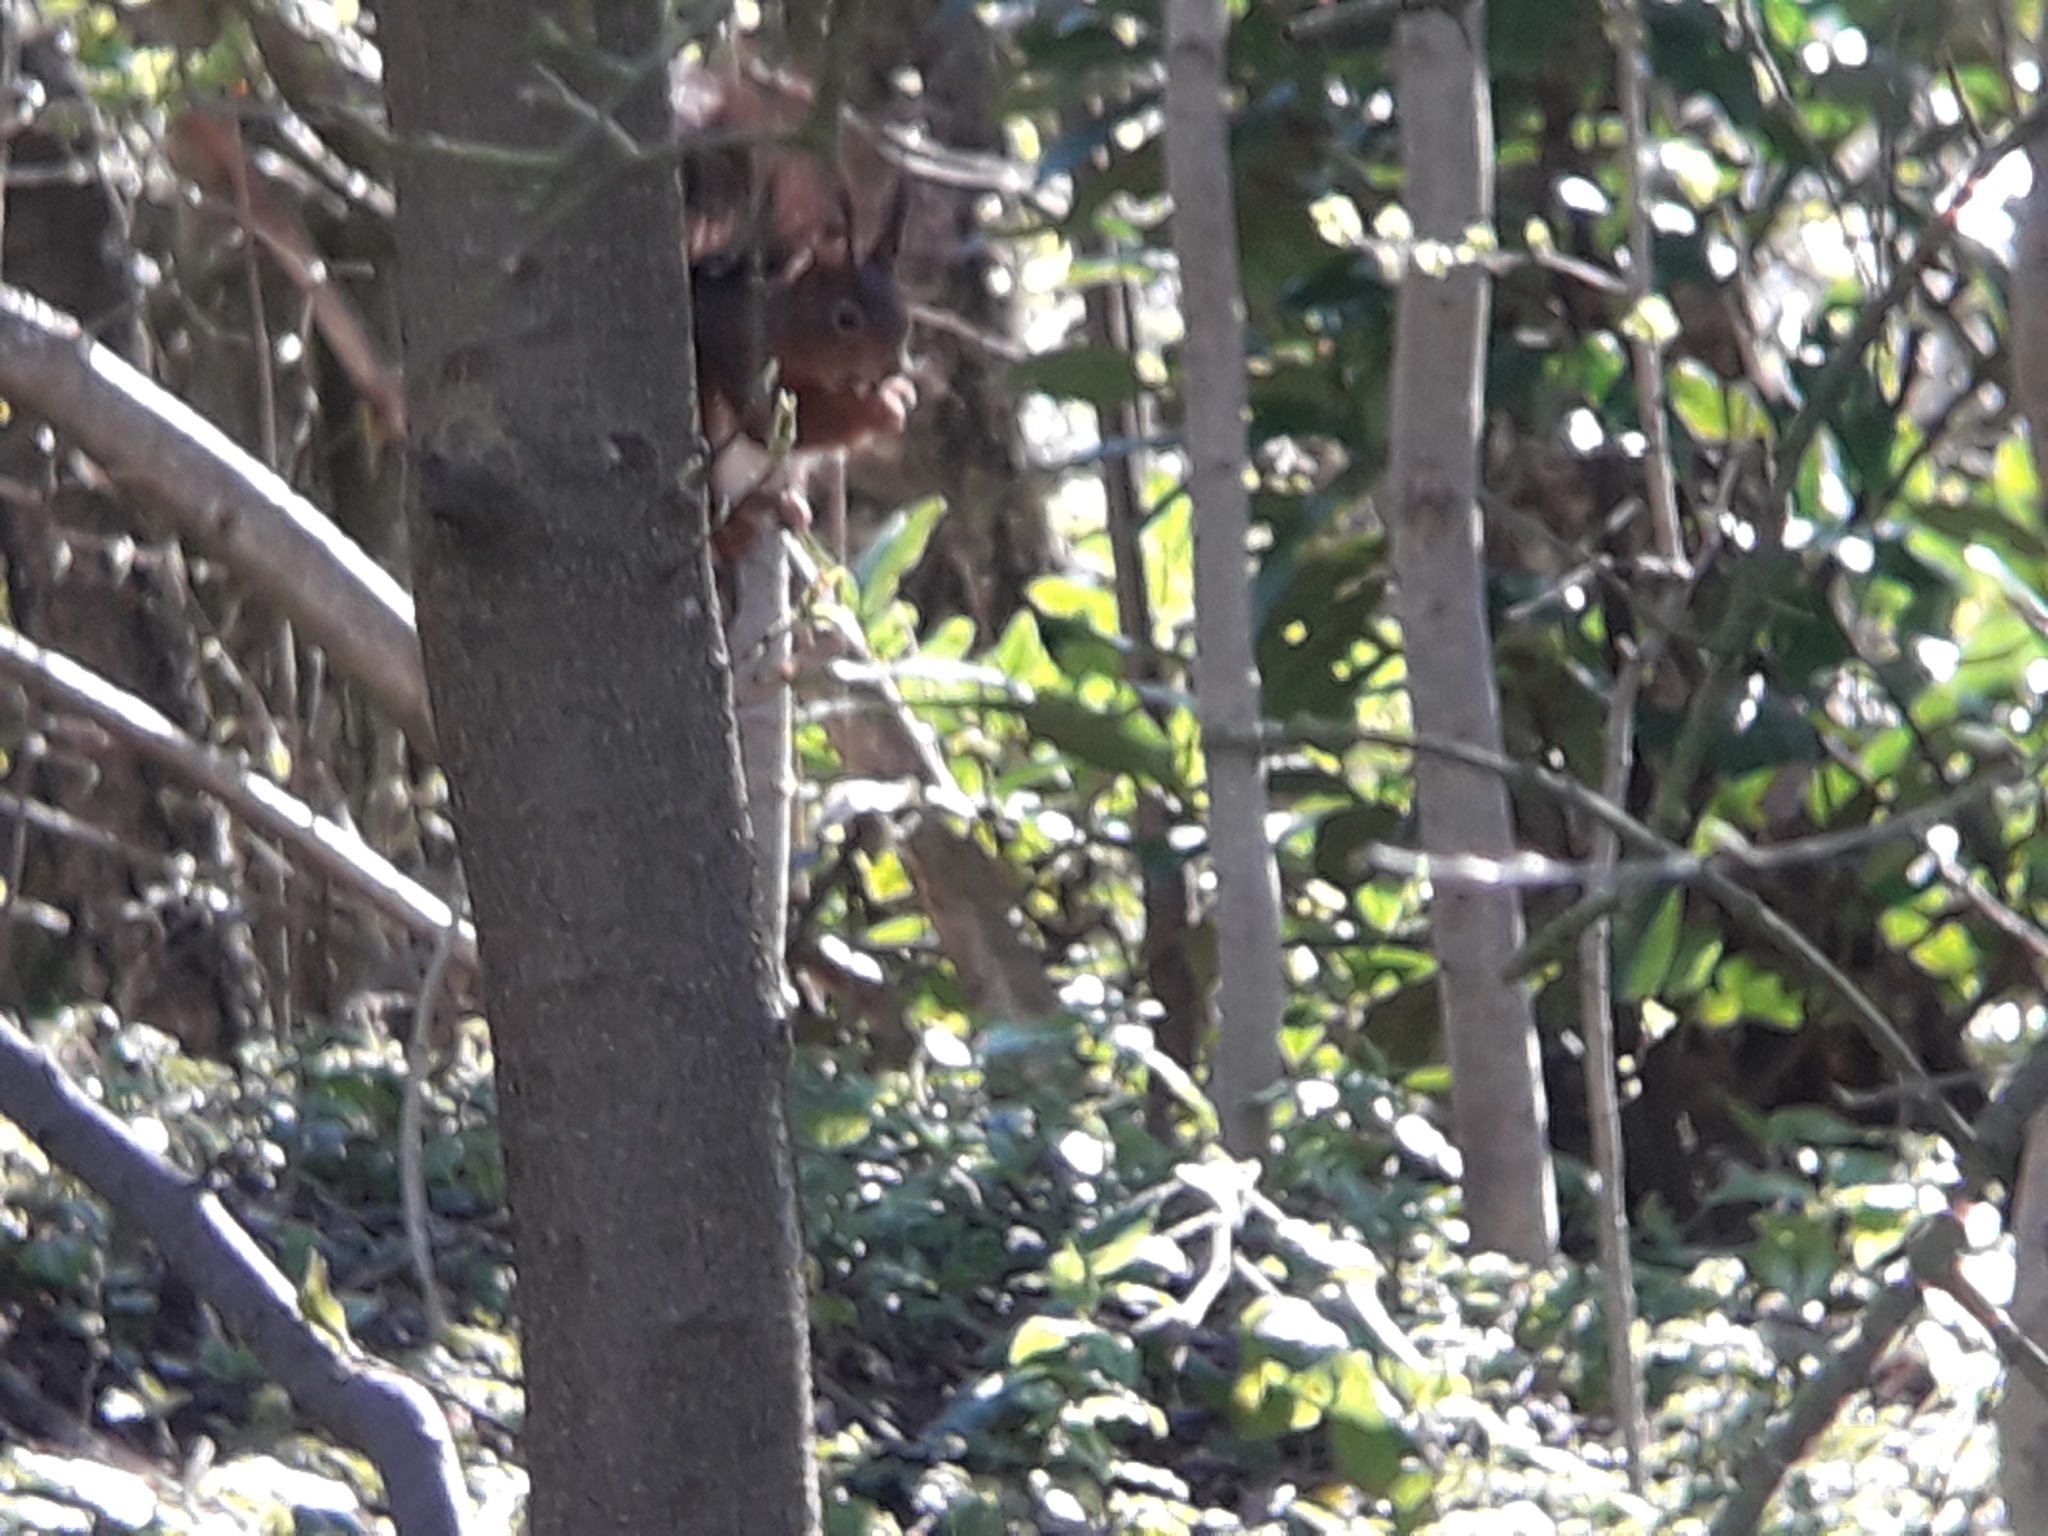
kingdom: Animalia
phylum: Chordata
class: Mammalia
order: Rodentia
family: Sciuridae
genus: Sciurus
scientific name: Sciurus vulgaris
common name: Eurasian red squirrel
